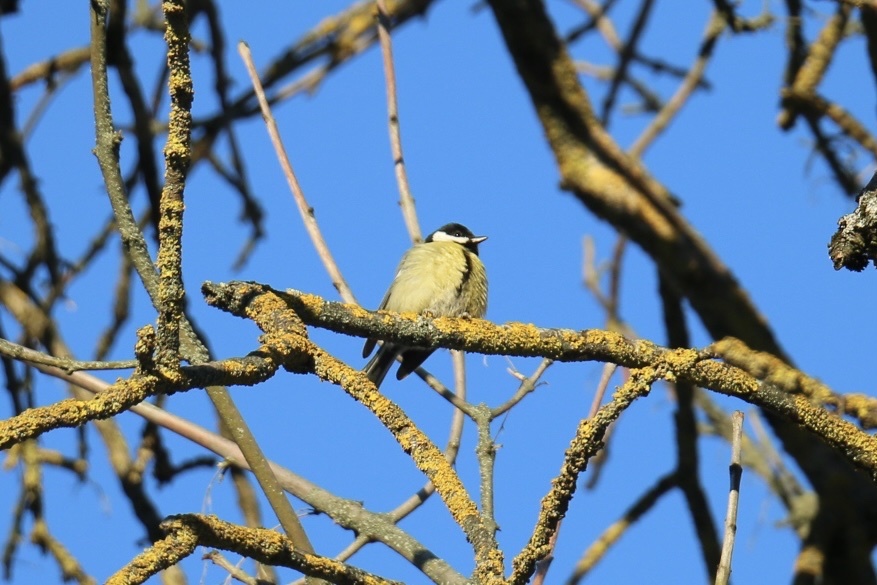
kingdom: Animalia
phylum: Chordata
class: Aves
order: Passeriformes
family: Paridae
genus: Parus
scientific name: Parus major
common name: Great tit
